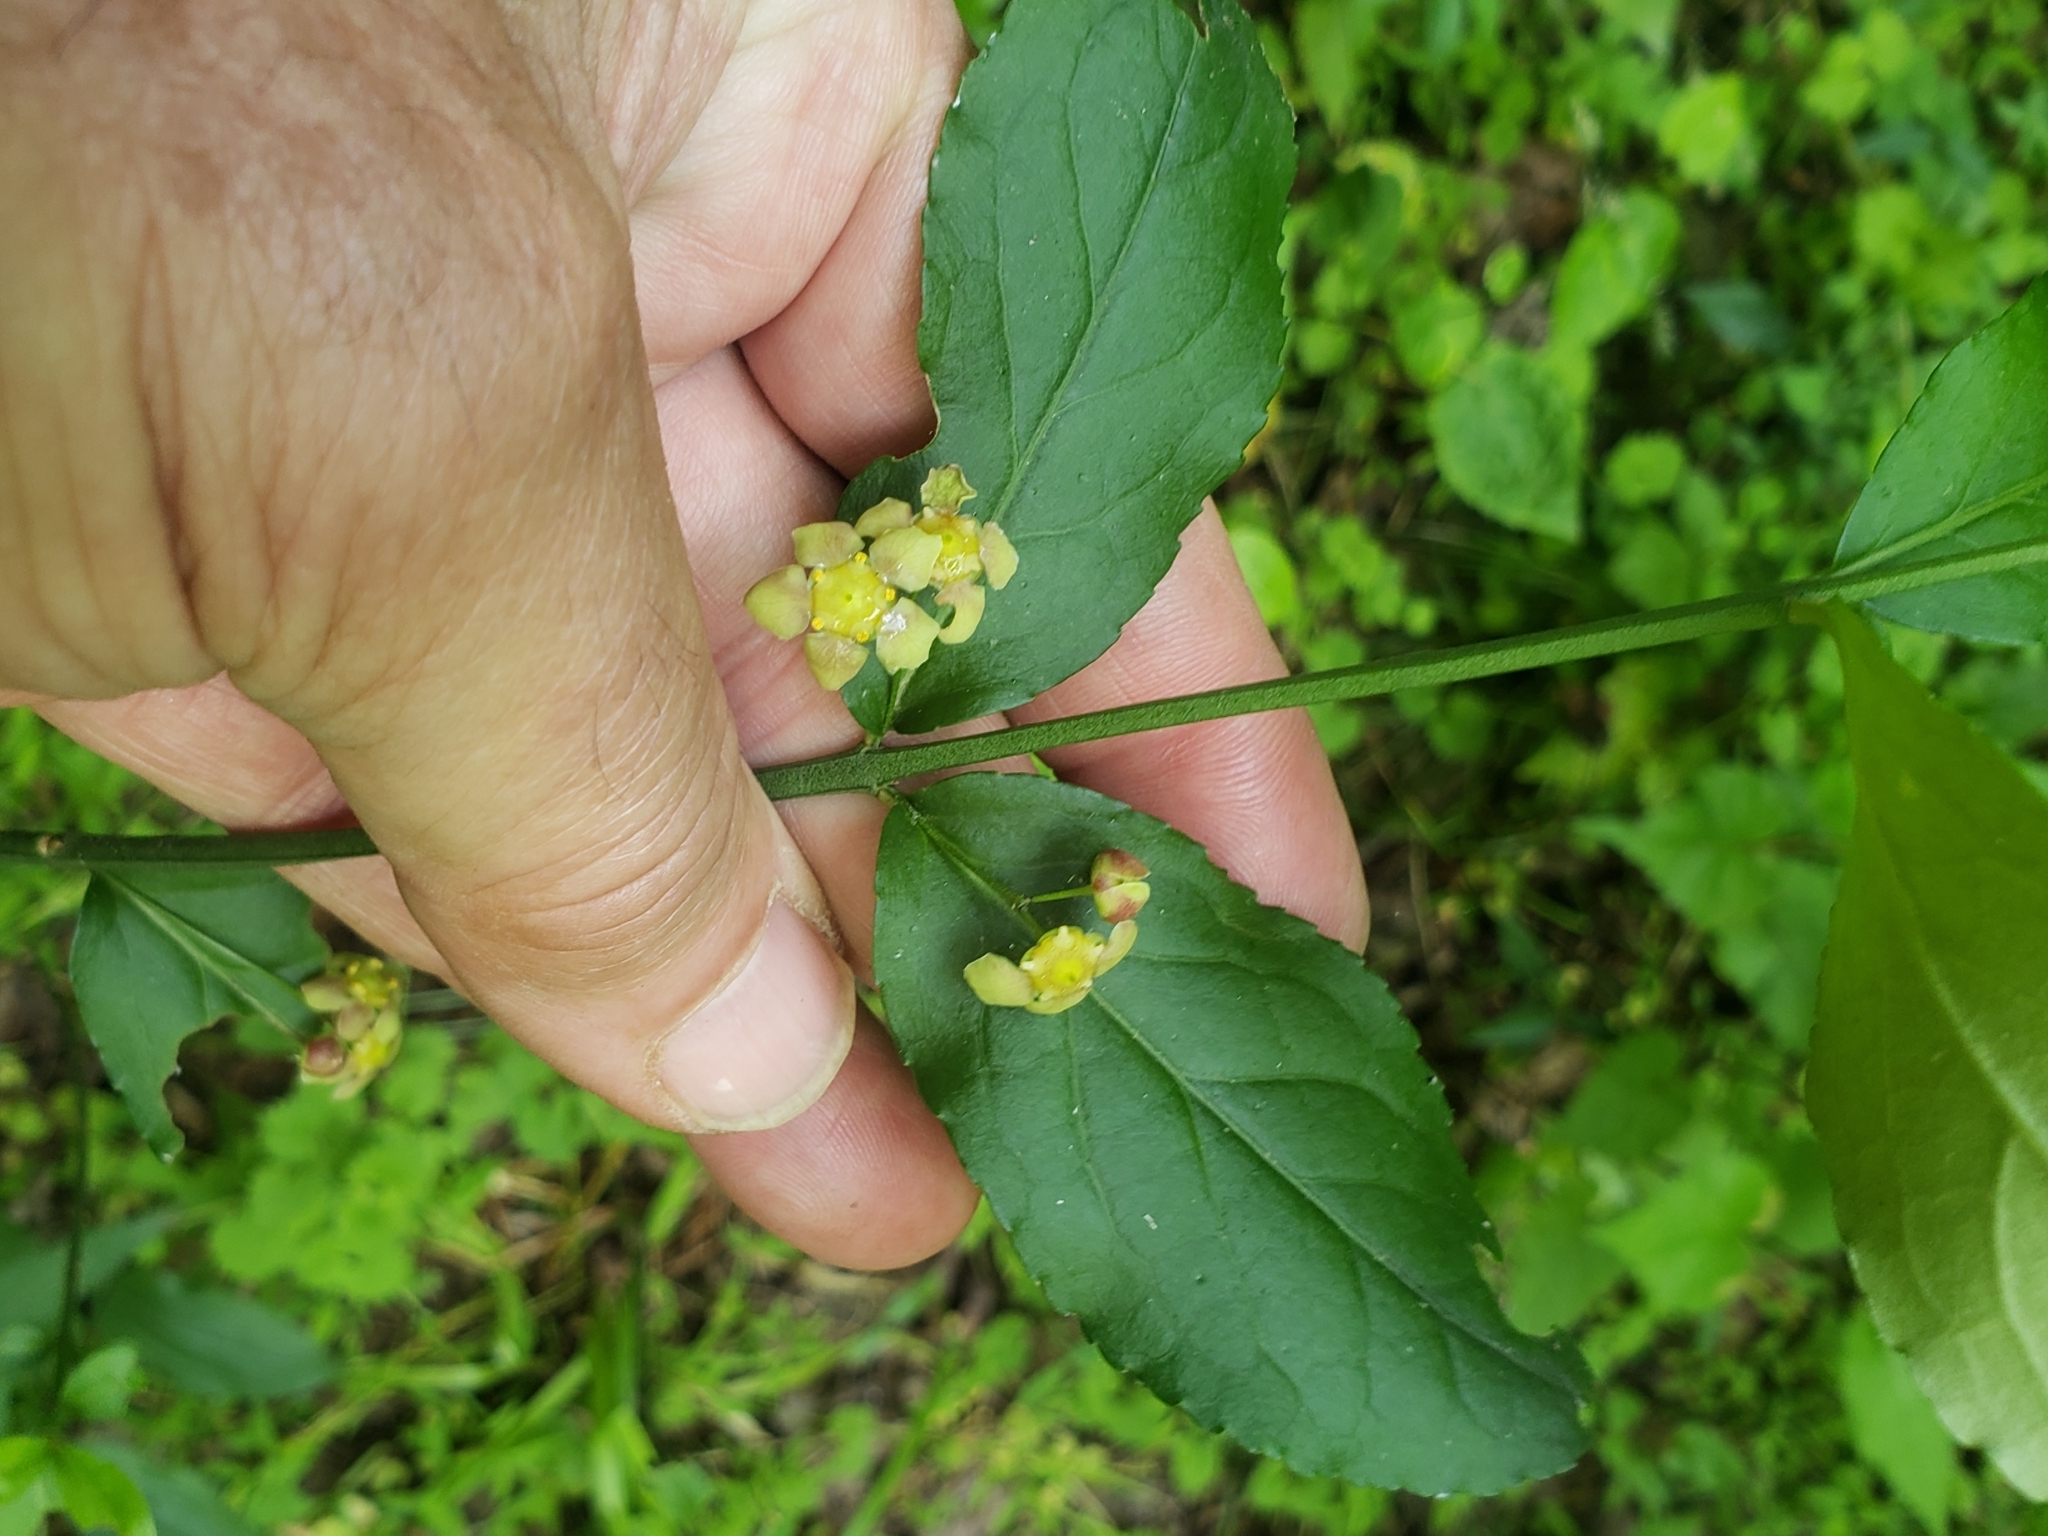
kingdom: Plantae
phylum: Tracheophyta
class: Magnoliopsida
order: Celastrales
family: Celastraceae
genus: Euonymus
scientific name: Euonymus americanus
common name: Bursting-heart
